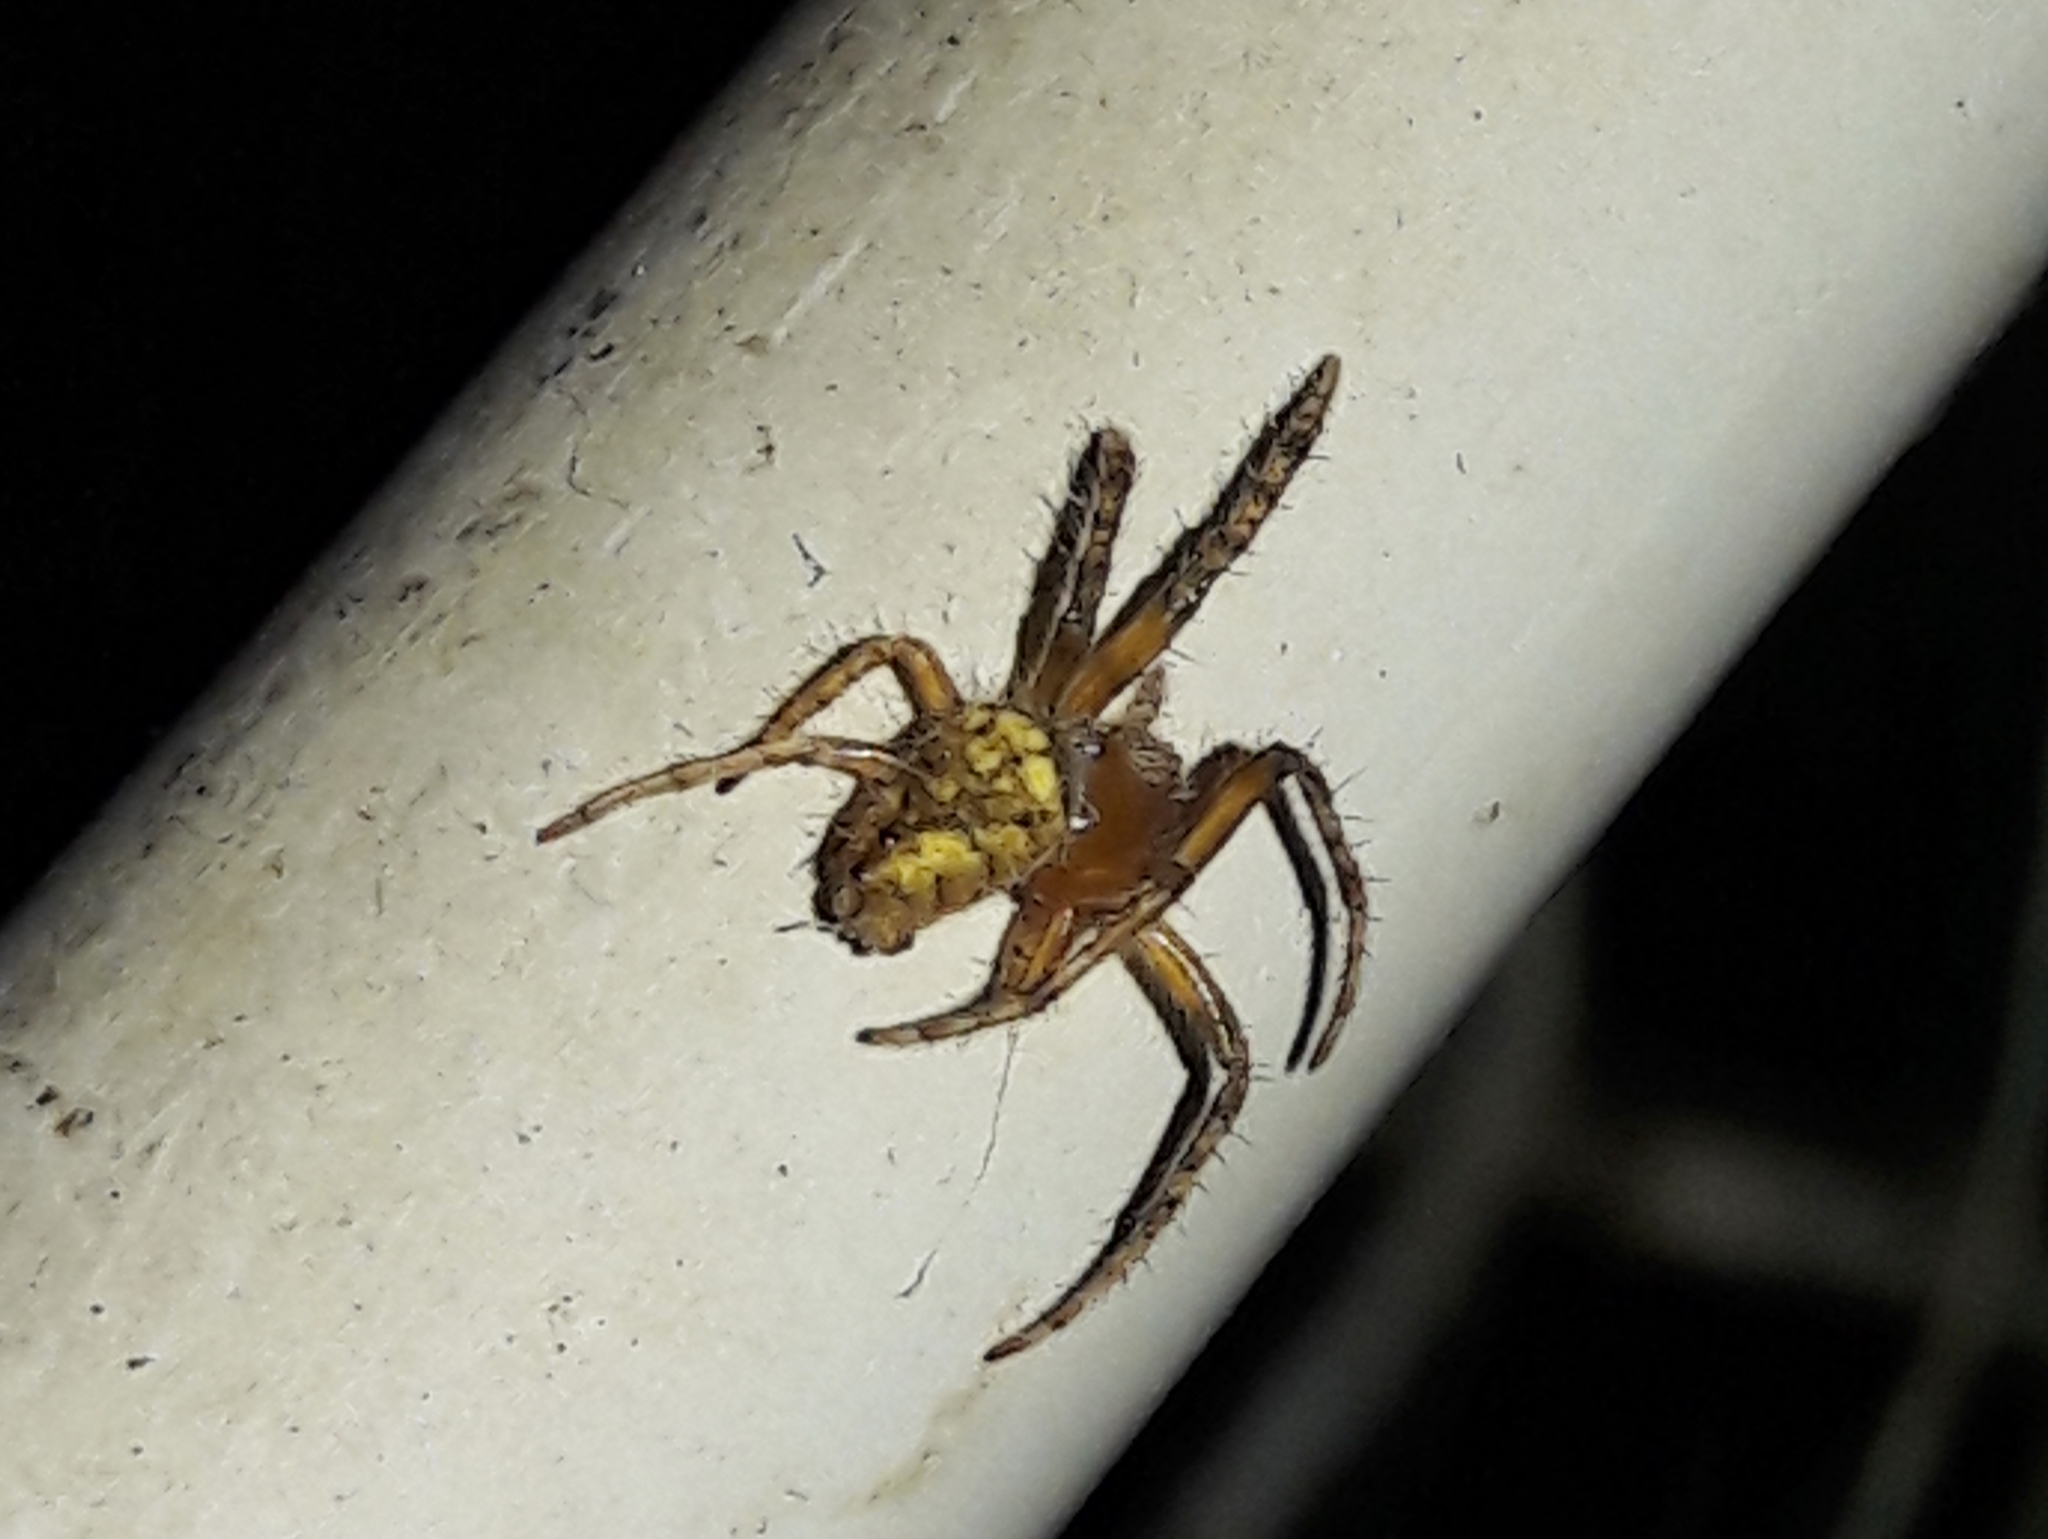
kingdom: Animalia
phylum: Arthropoda
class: Arachnida
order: Araneae
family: Araneidae
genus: Eriophora
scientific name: Eriophora edax
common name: Orb weavers
